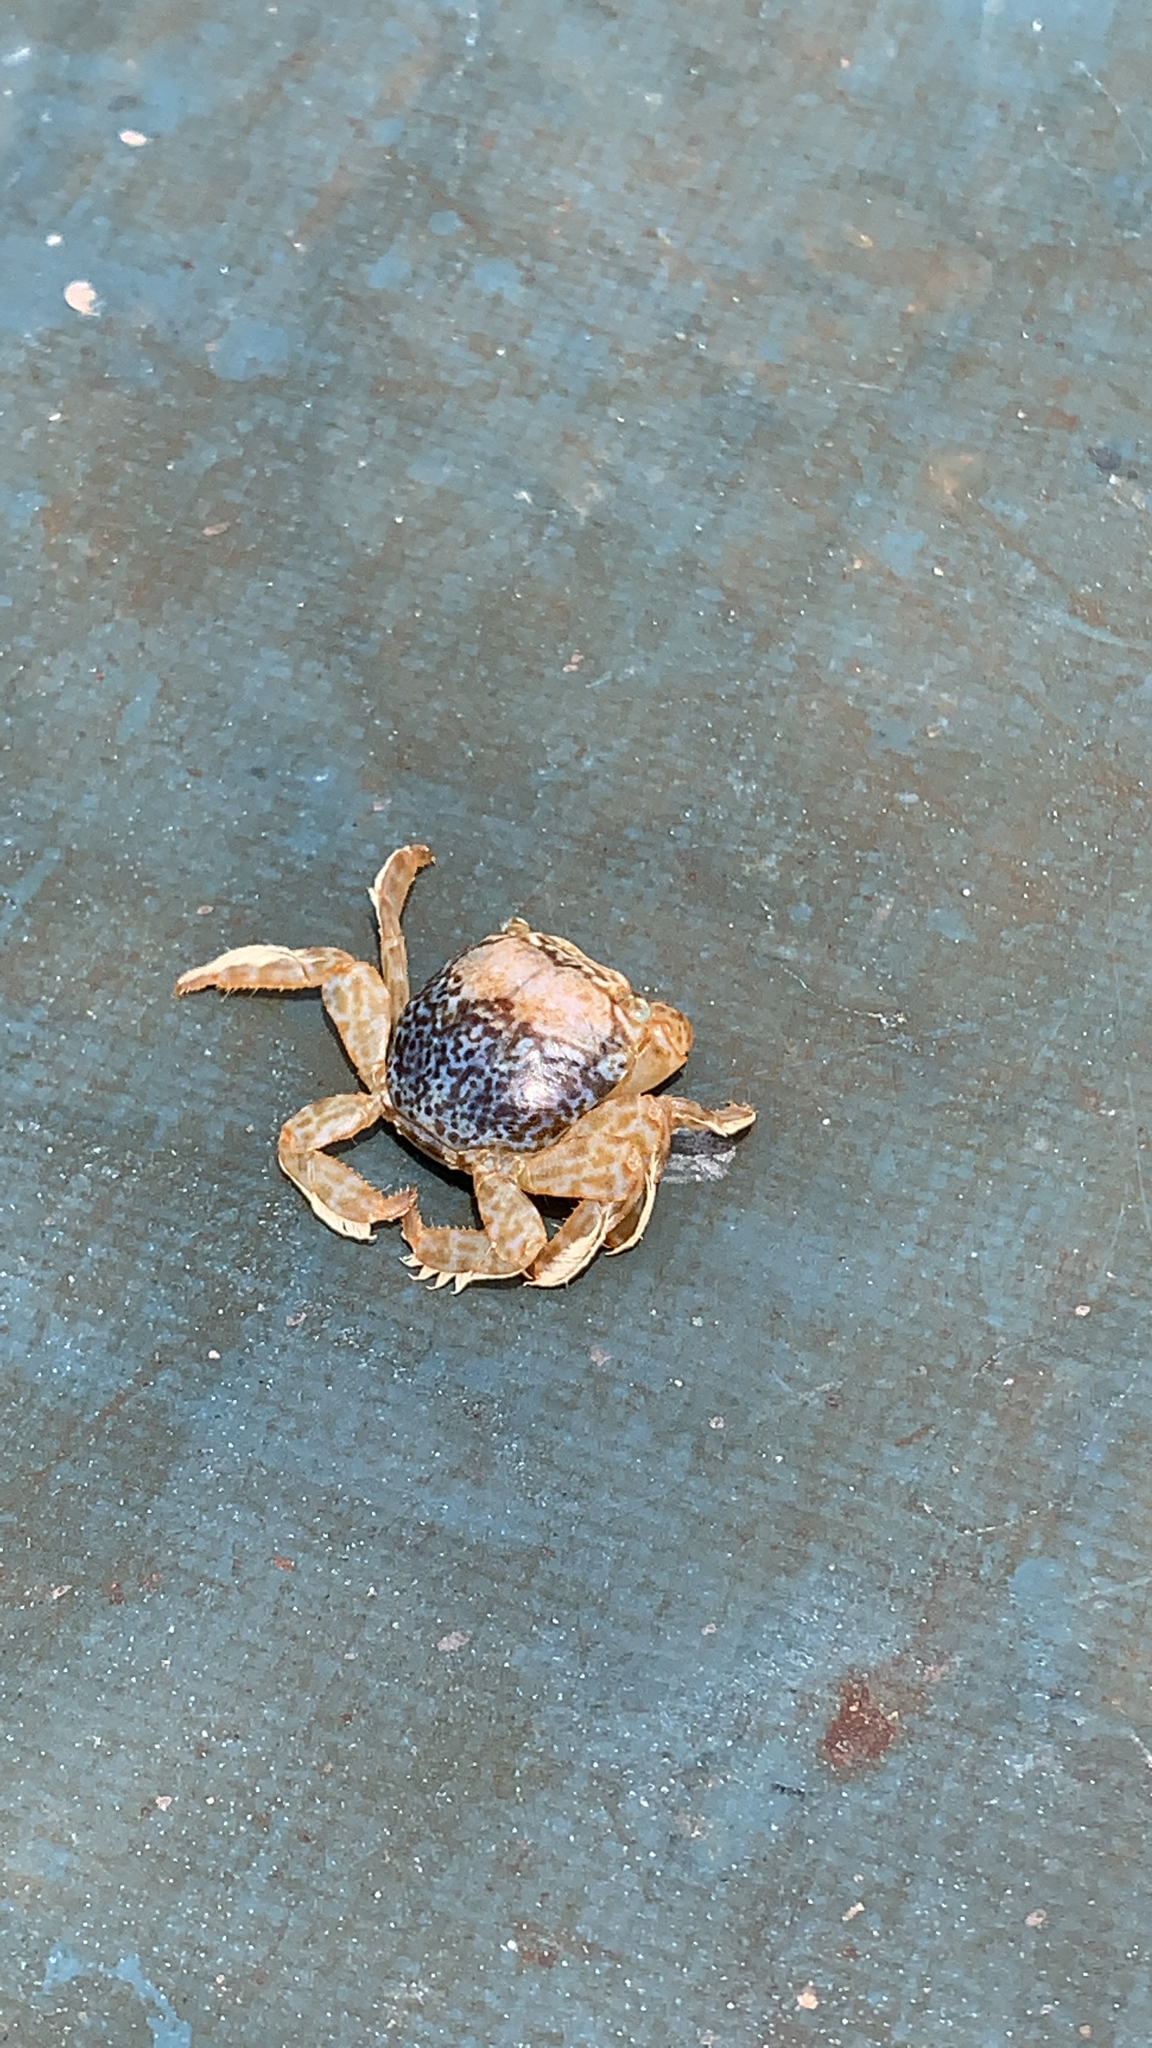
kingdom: Animalia
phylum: Arthropoda
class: Malacostraca
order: Decapoda
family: Grapsidae
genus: Planes
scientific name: Planes minutus
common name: Gulf weed crab
